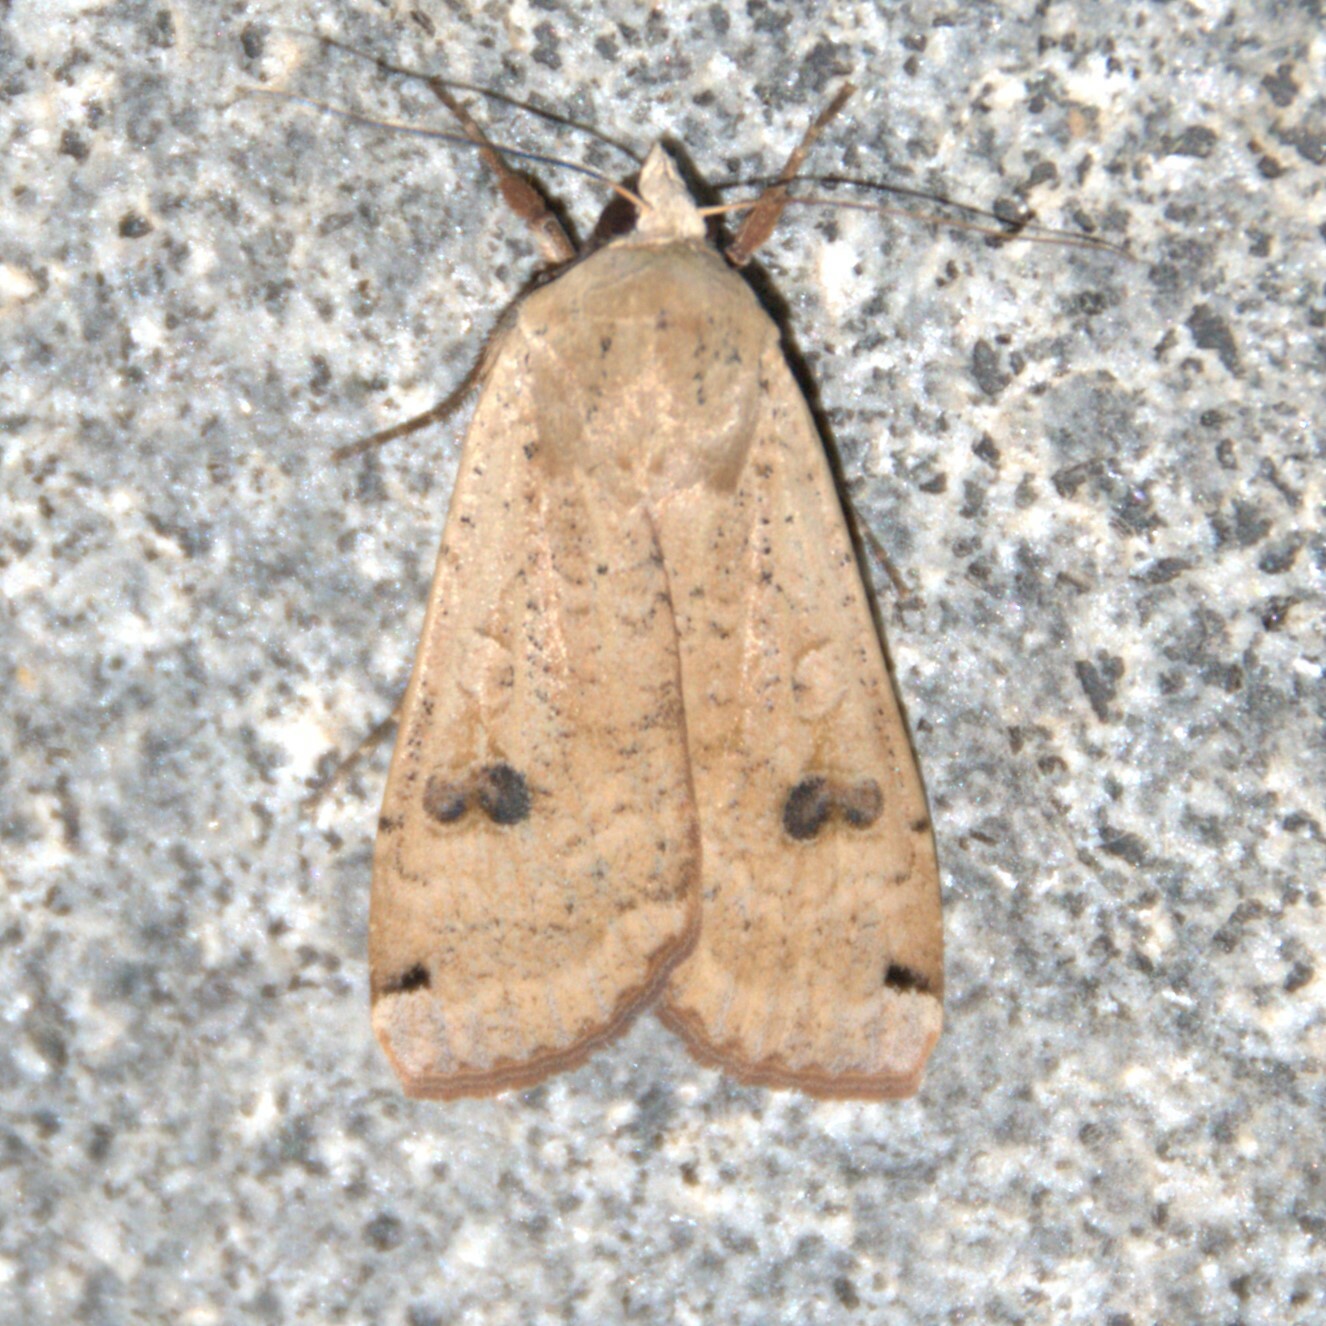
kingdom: Animalia
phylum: Arthropoda
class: Insecta
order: Lepidoptera
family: Noctuidae
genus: Noctua
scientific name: Noctua pronuba
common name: Large yellow underwing
